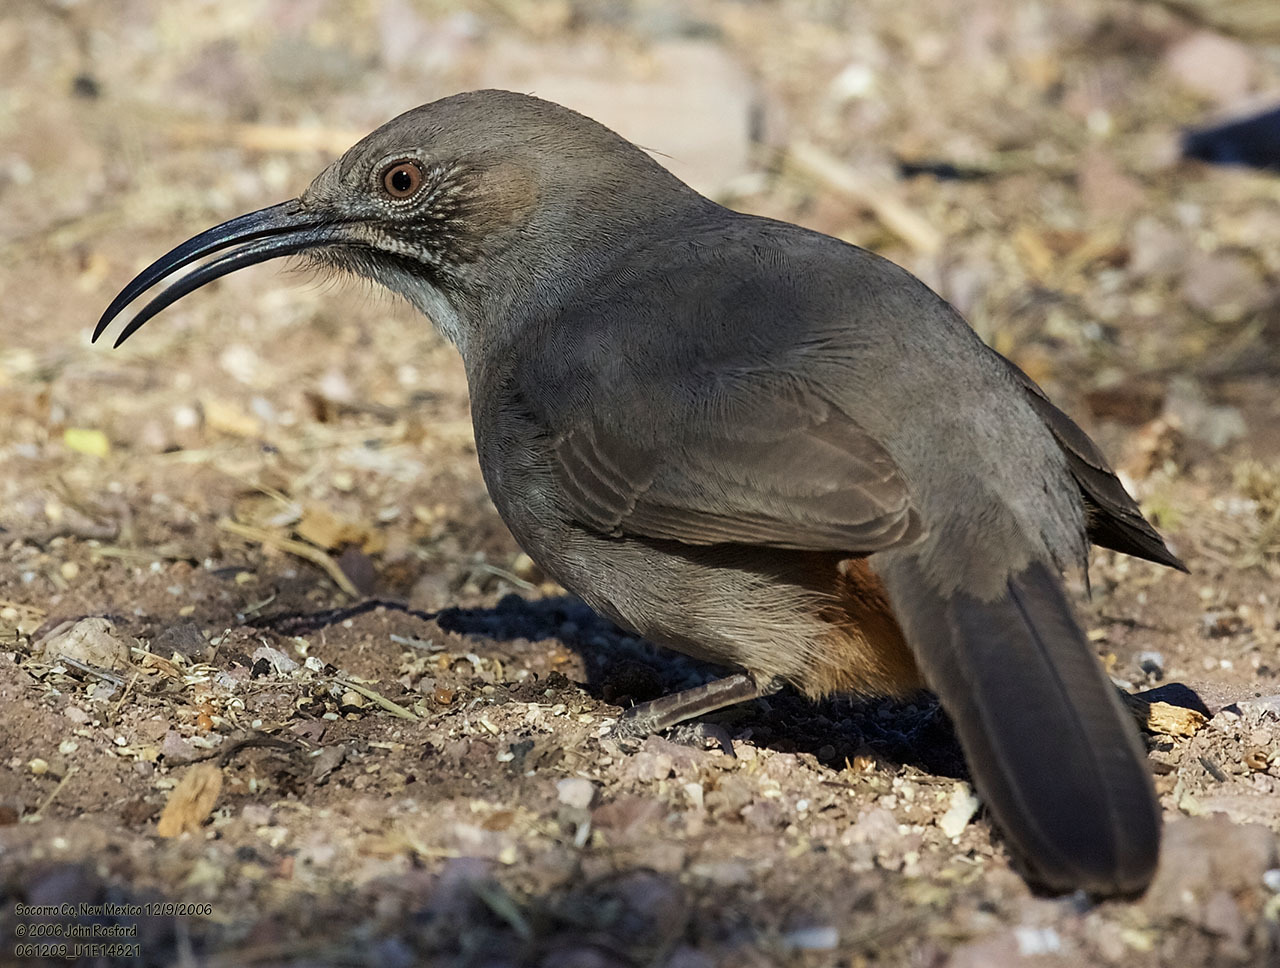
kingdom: Animalia
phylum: Chordata
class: Aves
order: Passeriformes
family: Mimidae
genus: Toxostoma
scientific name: Toxostoma crissale
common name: Crissal thrasher
